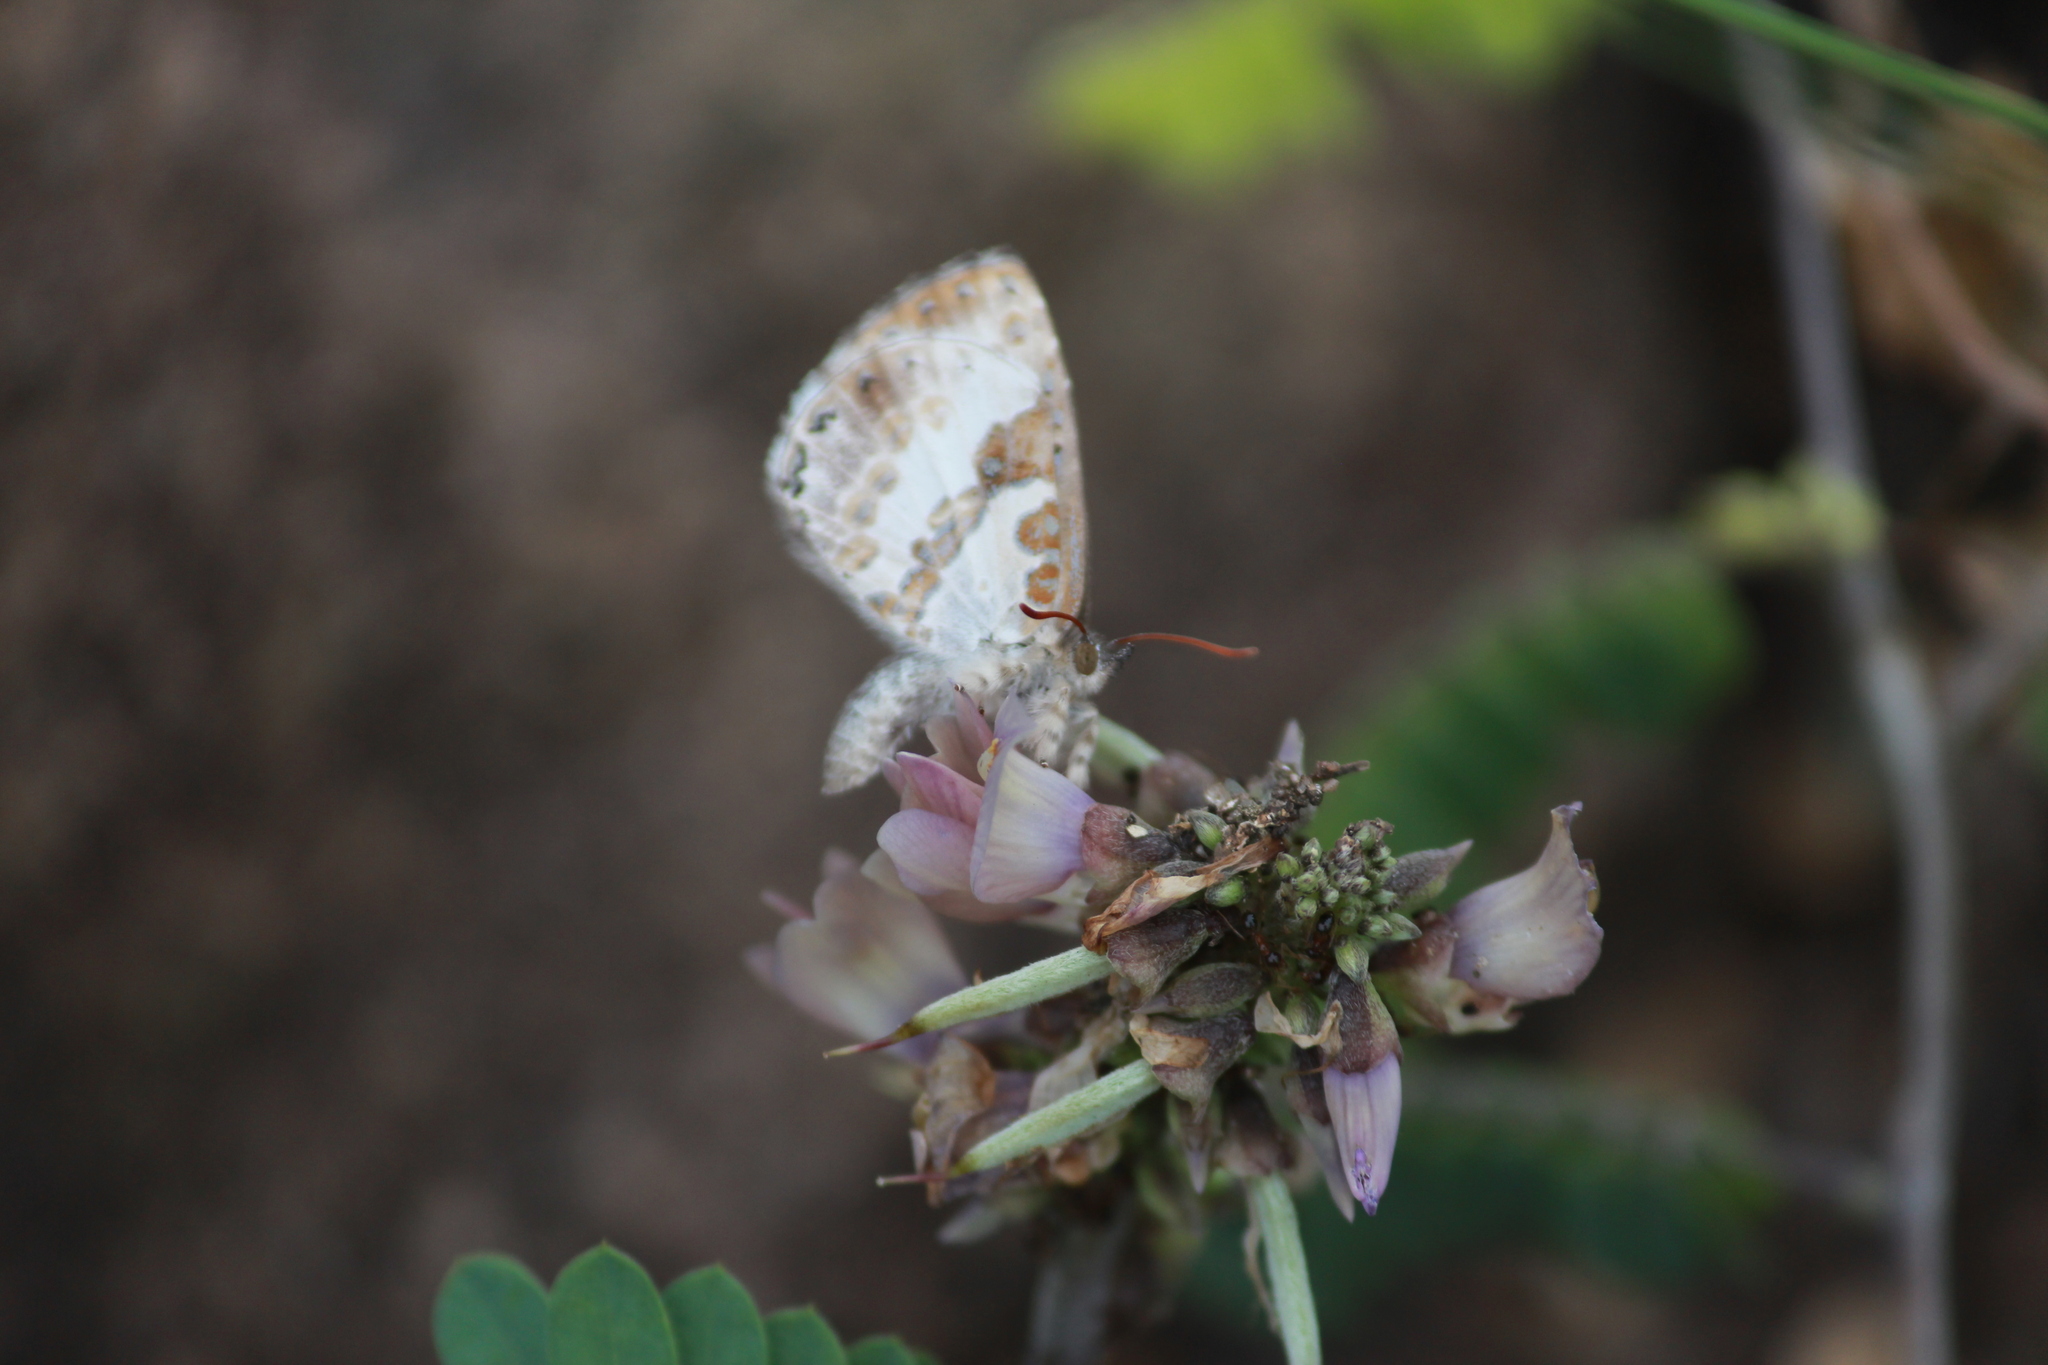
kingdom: Animalia
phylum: Arthropoda
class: Insecta
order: Lepidoptera
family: Lycaenidae
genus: Lachnocnema
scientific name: Lachnocnema bibulus
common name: Common woolly legs
